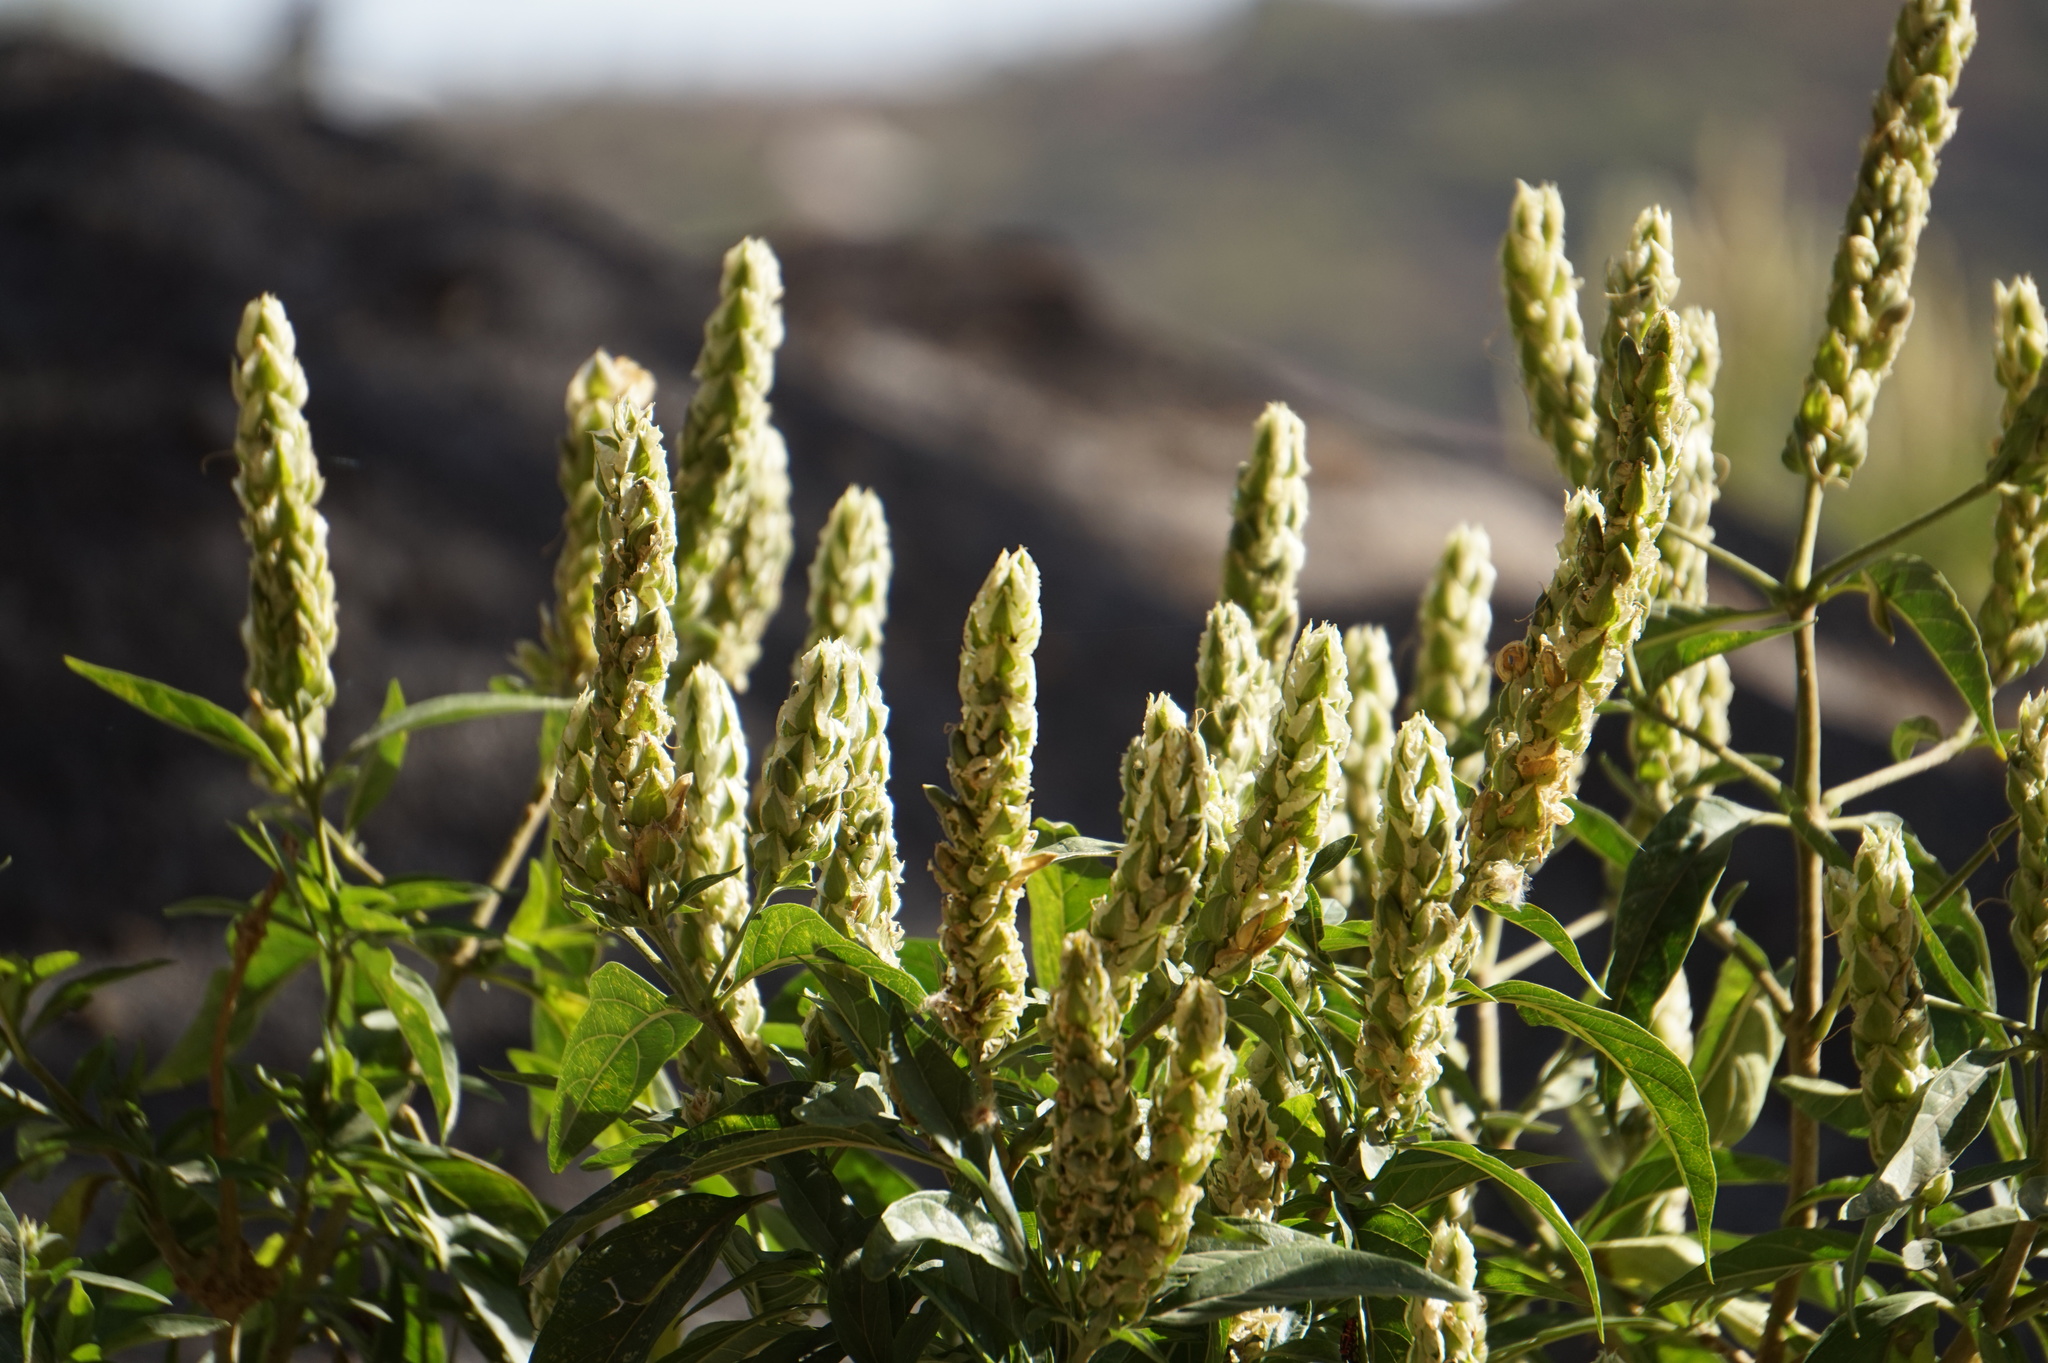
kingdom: Plantae
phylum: Tracheophyta
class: Magnoliopsida
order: Lamiales
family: Acanthaceae
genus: Justicia
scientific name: Justicia schimperiana
